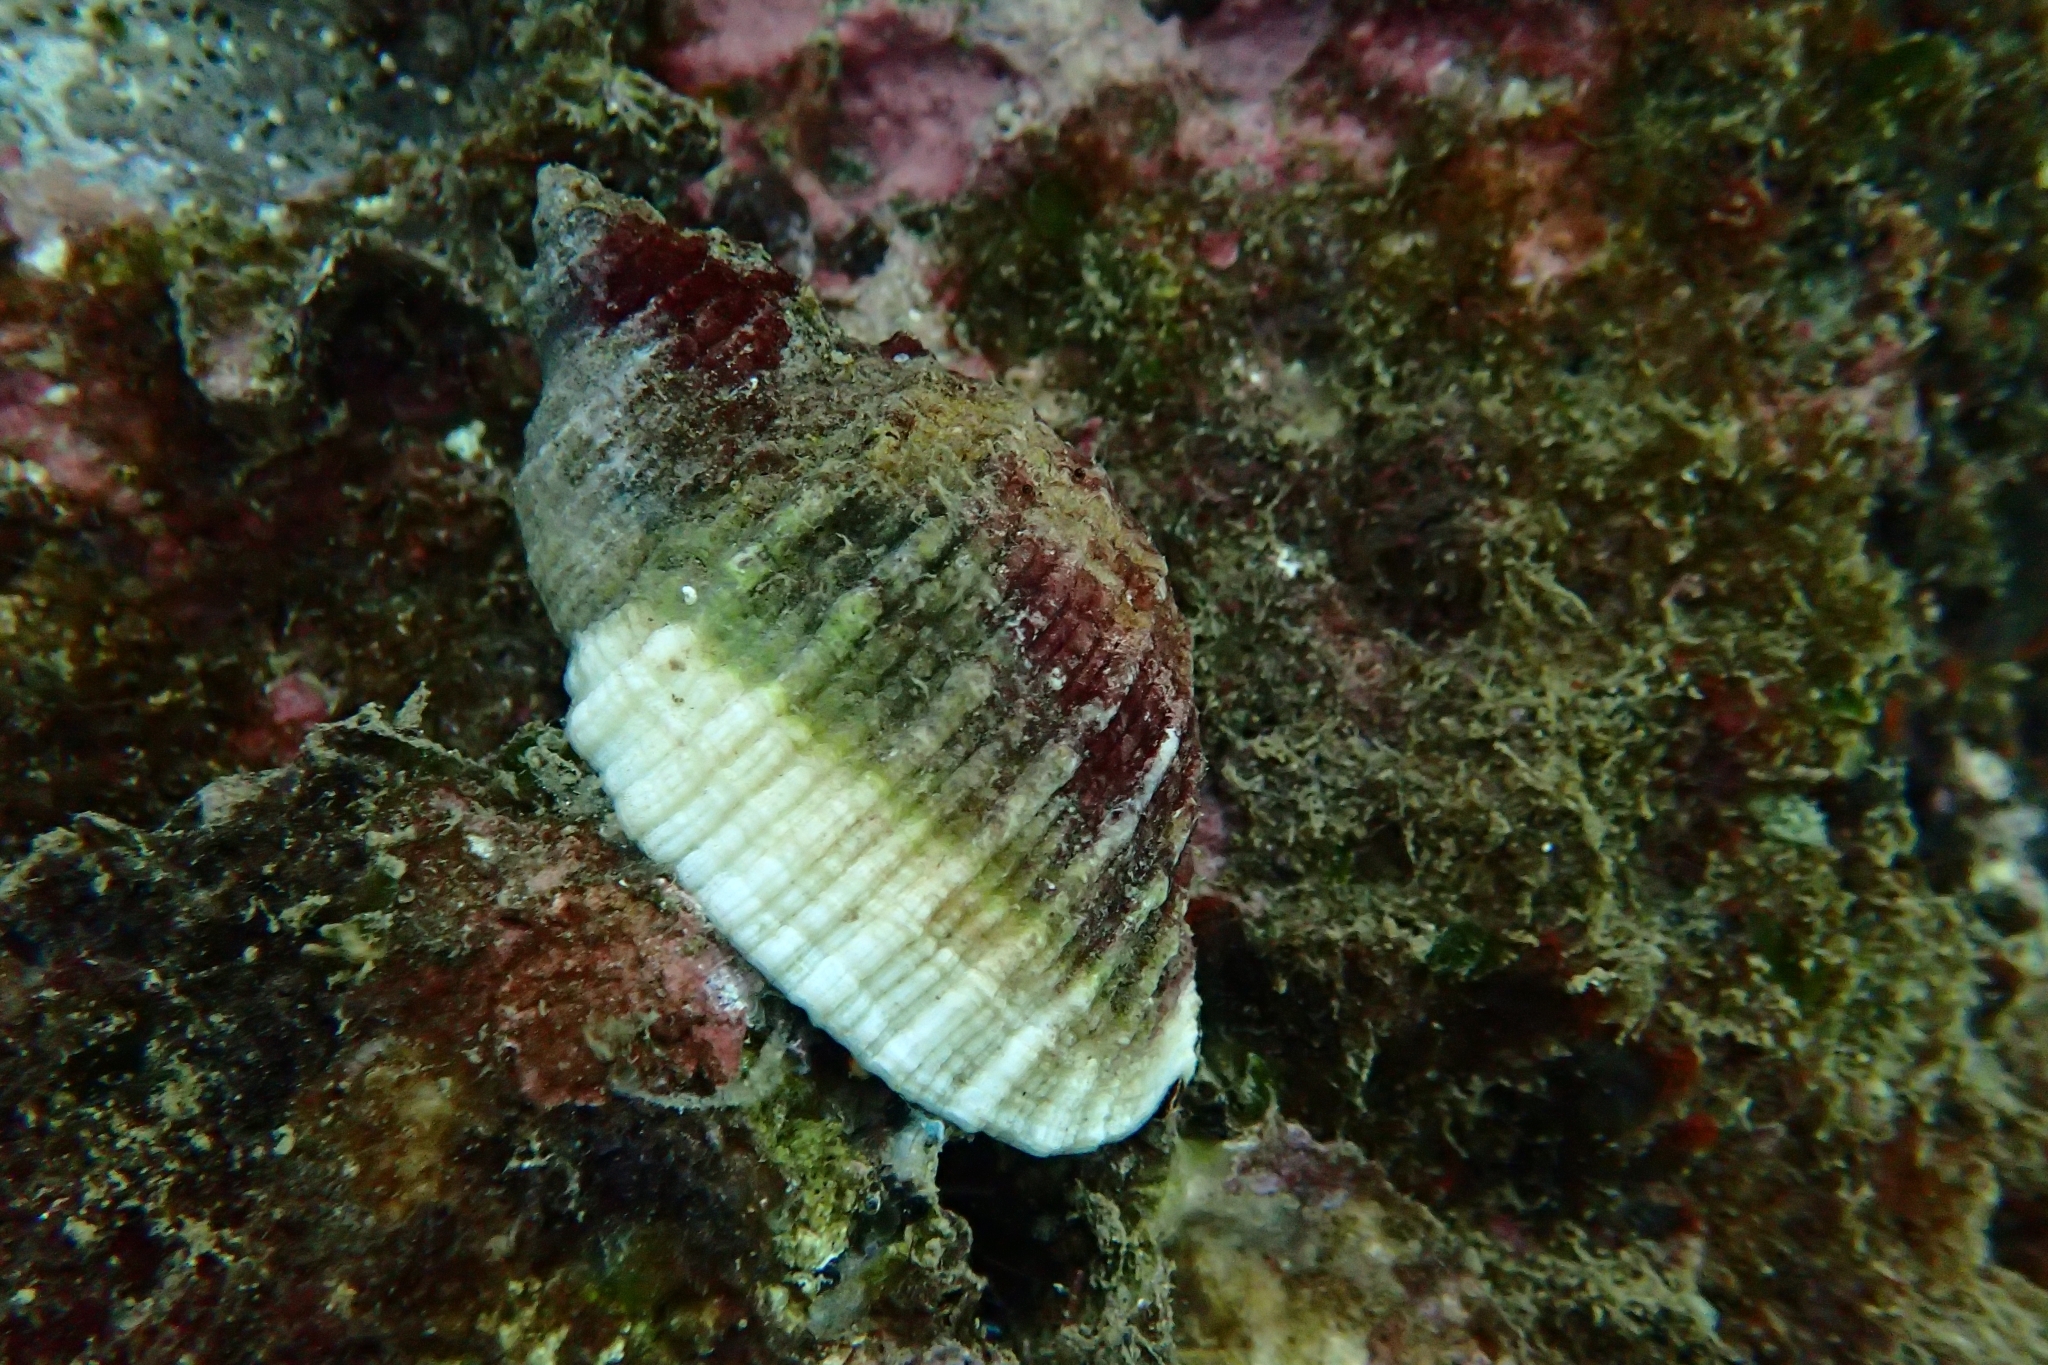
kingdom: Animalia
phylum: Mollusca
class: Gastropoda
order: Neogastropoda
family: Muricidae
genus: Dicathais
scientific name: Dicathais orbita
